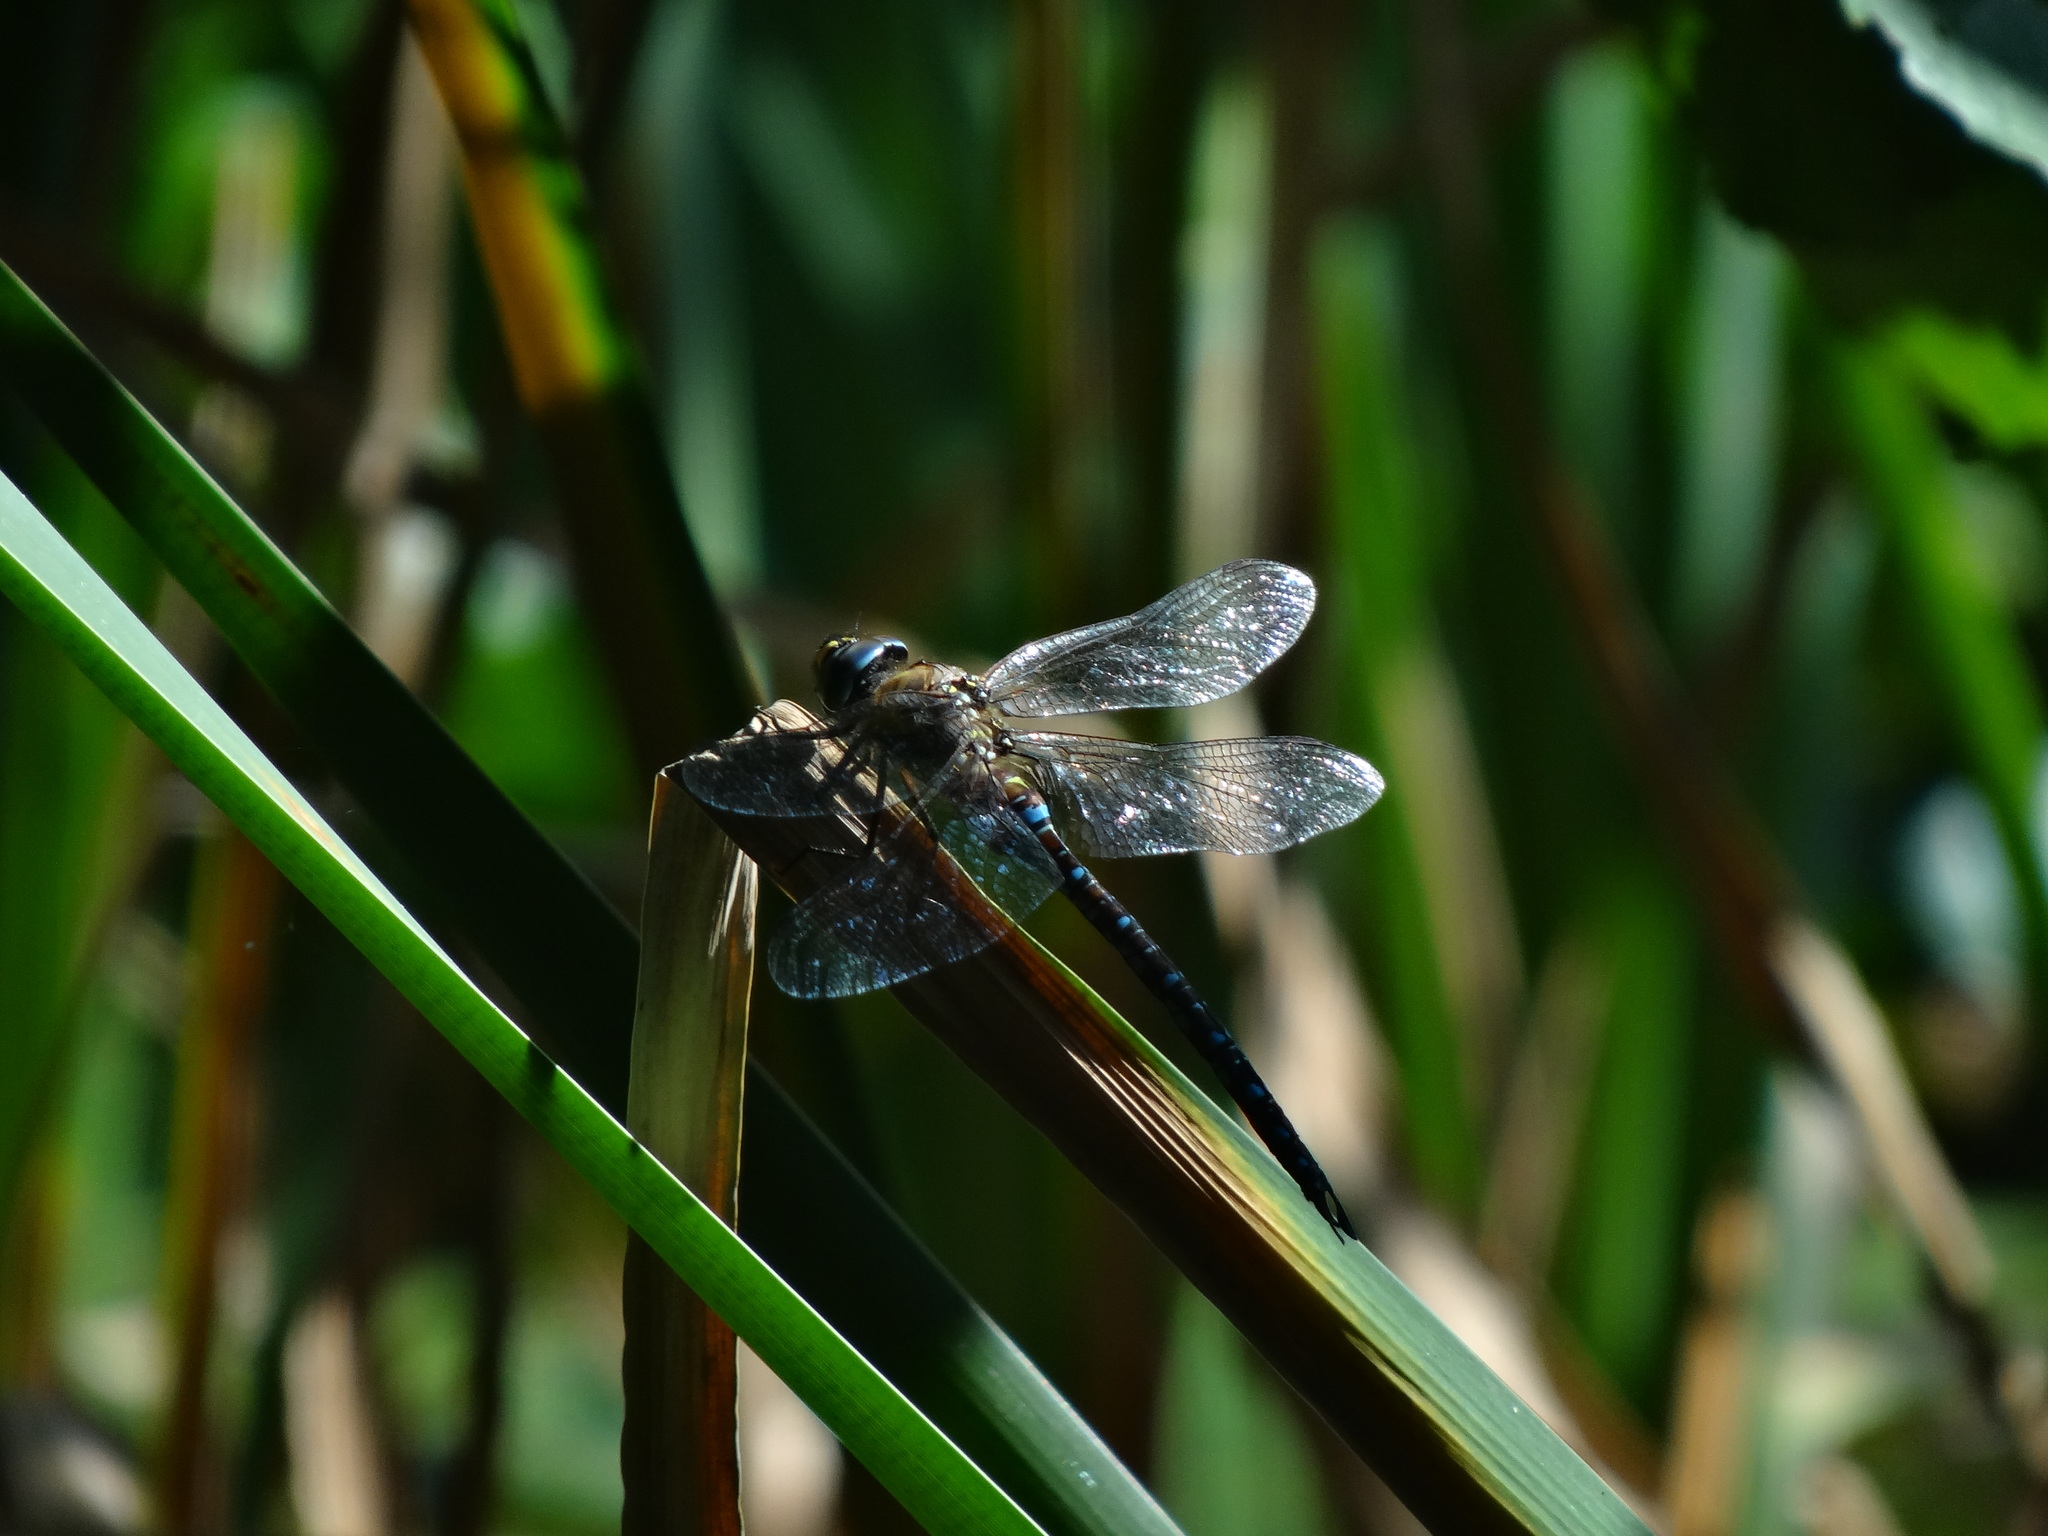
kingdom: Animalia
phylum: Arthropoda
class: Insecta
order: Odonata
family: Aeshnidae
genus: Aeshna
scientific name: Aeshna mixta
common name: Migrant hawker
